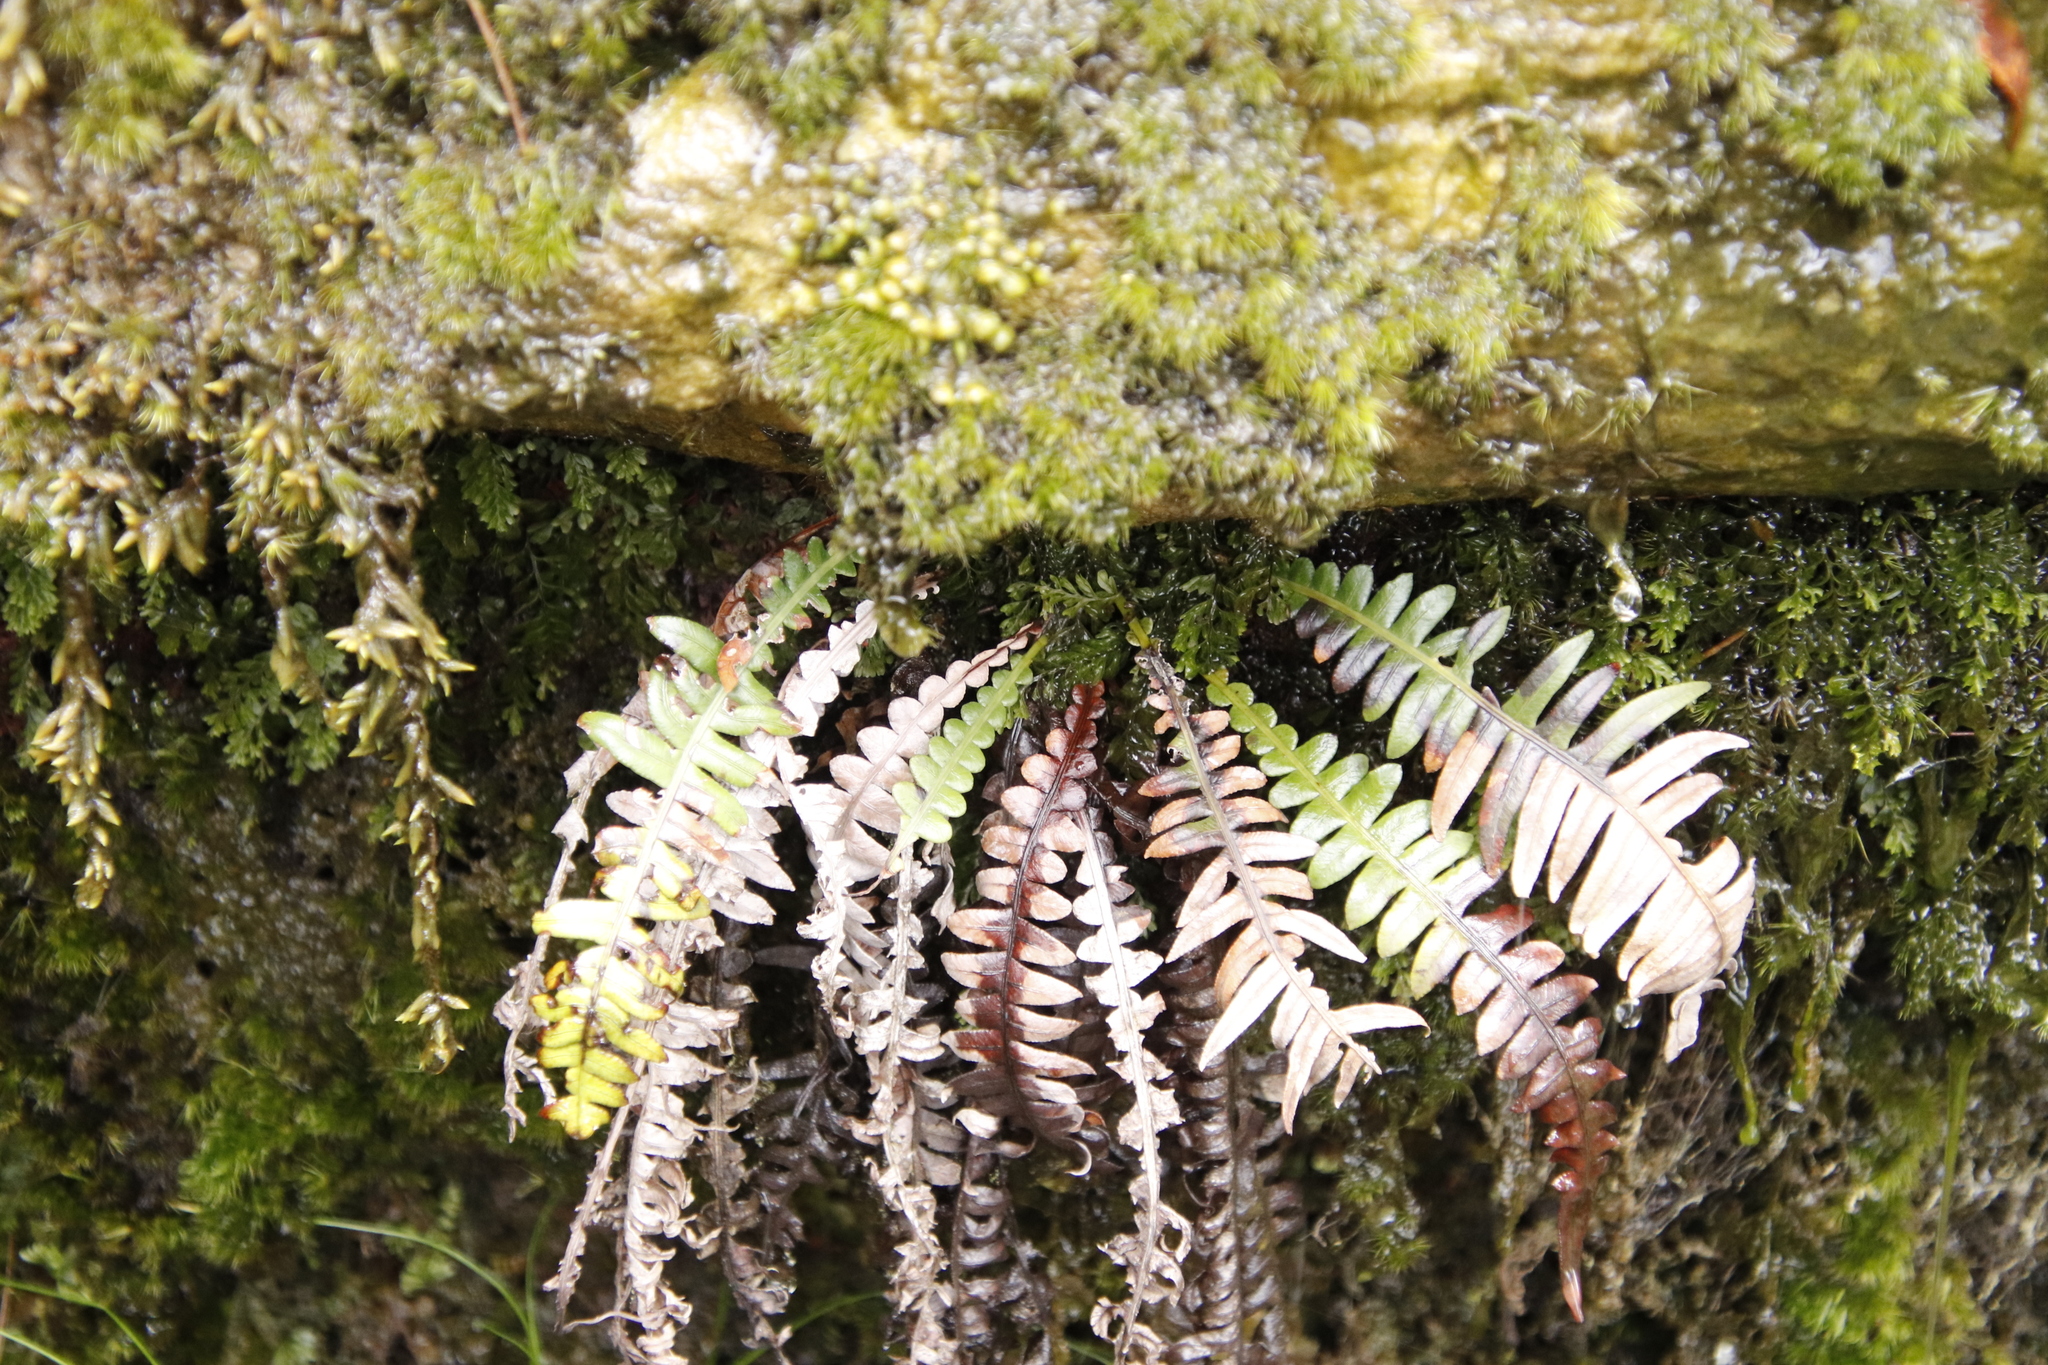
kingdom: Plantae
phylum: Tracheophyta
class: Polypodiopsida
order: Polypodiales
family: Blechnaceae
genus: Lomaridium
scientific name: Lomaridium attenuatum
